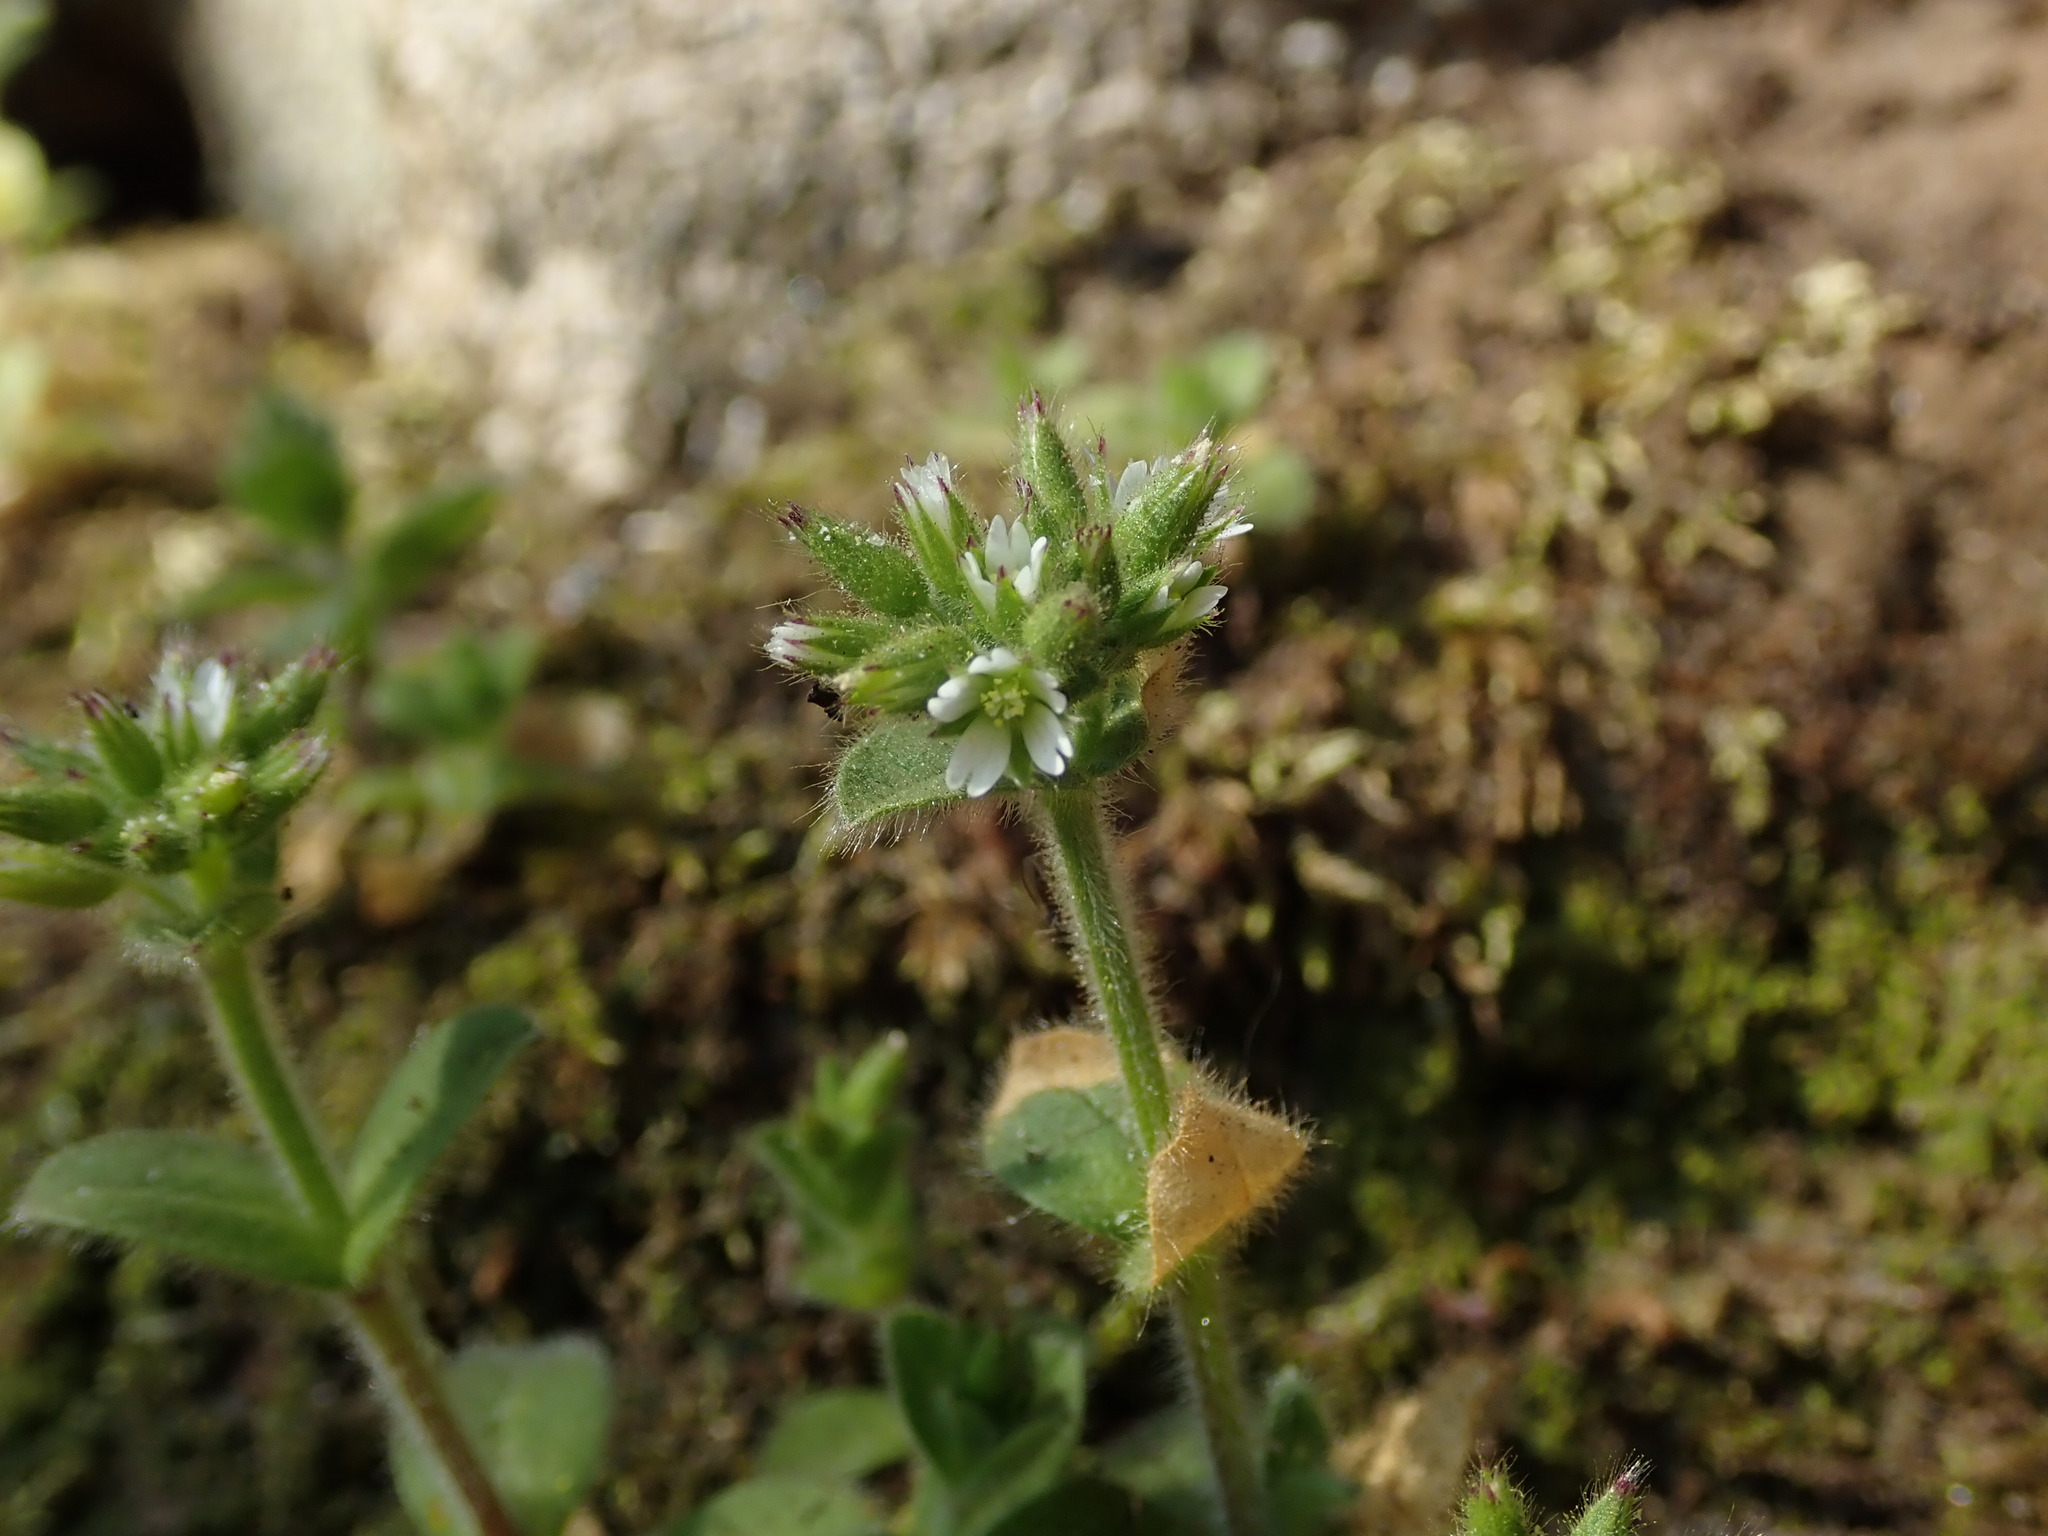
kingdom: Plantae
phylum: Tracheophyta
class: Magnoliopsida
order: Caryophyllales
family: Caryophyllaceae
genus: Cerastium
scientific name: Cerastium glomeratum
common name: Sticky chickweed
